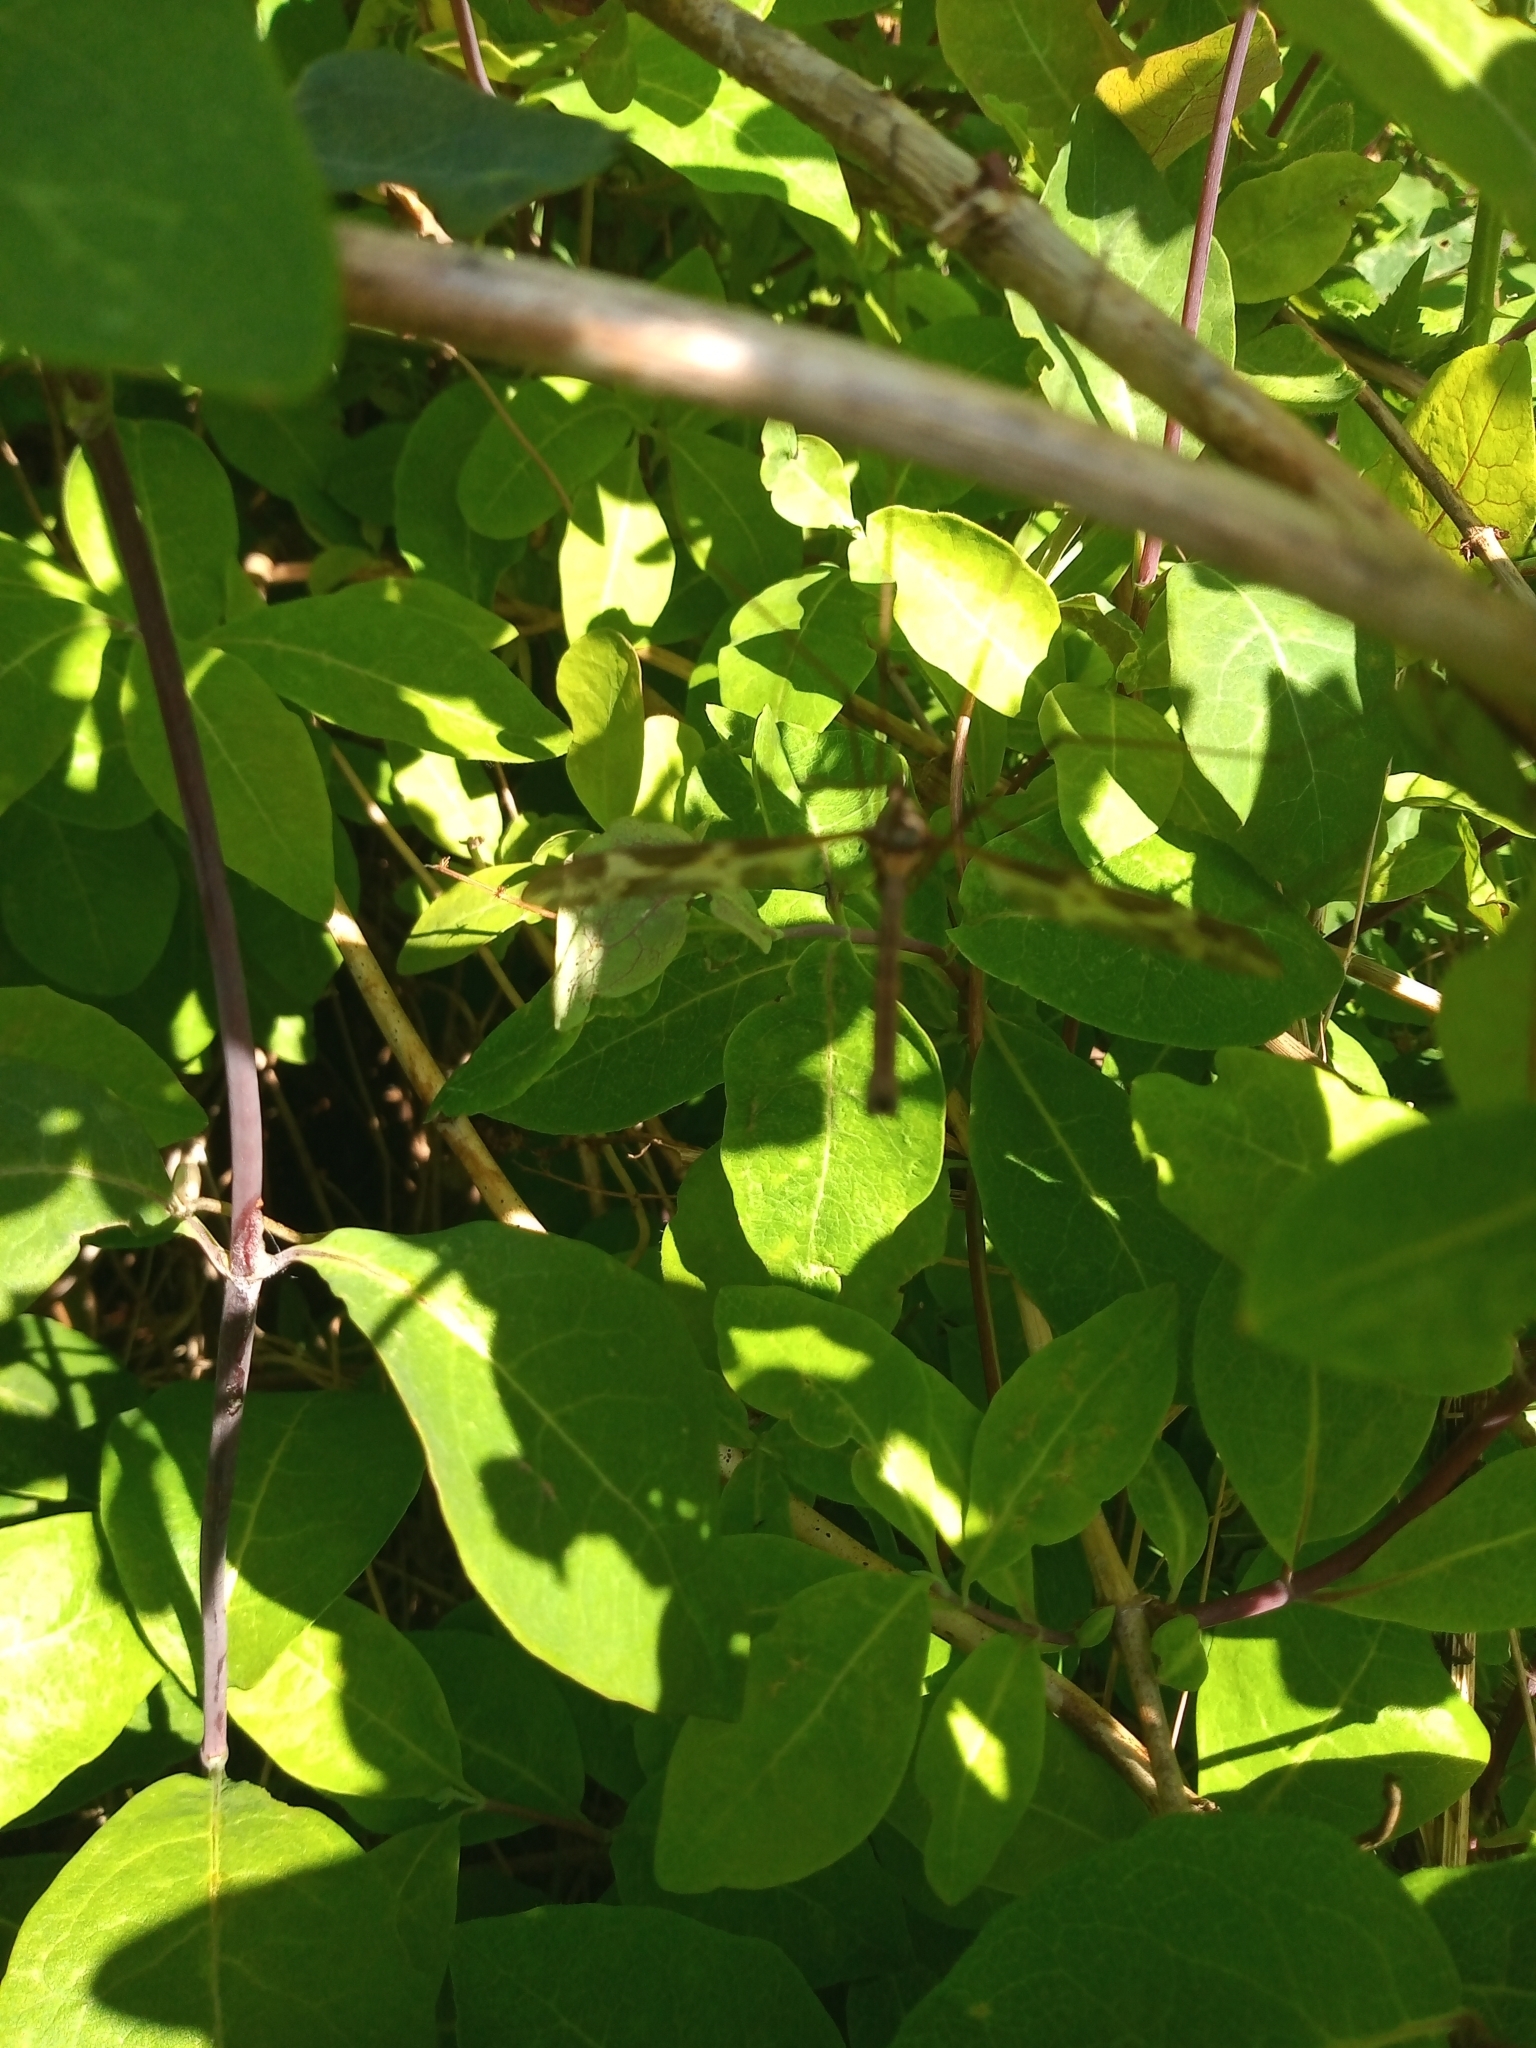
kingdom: Animalia
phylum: Arthropoda
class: Insecta
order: Diptera
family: Tipulidae
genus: Tipula
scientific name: Tipula maxima
